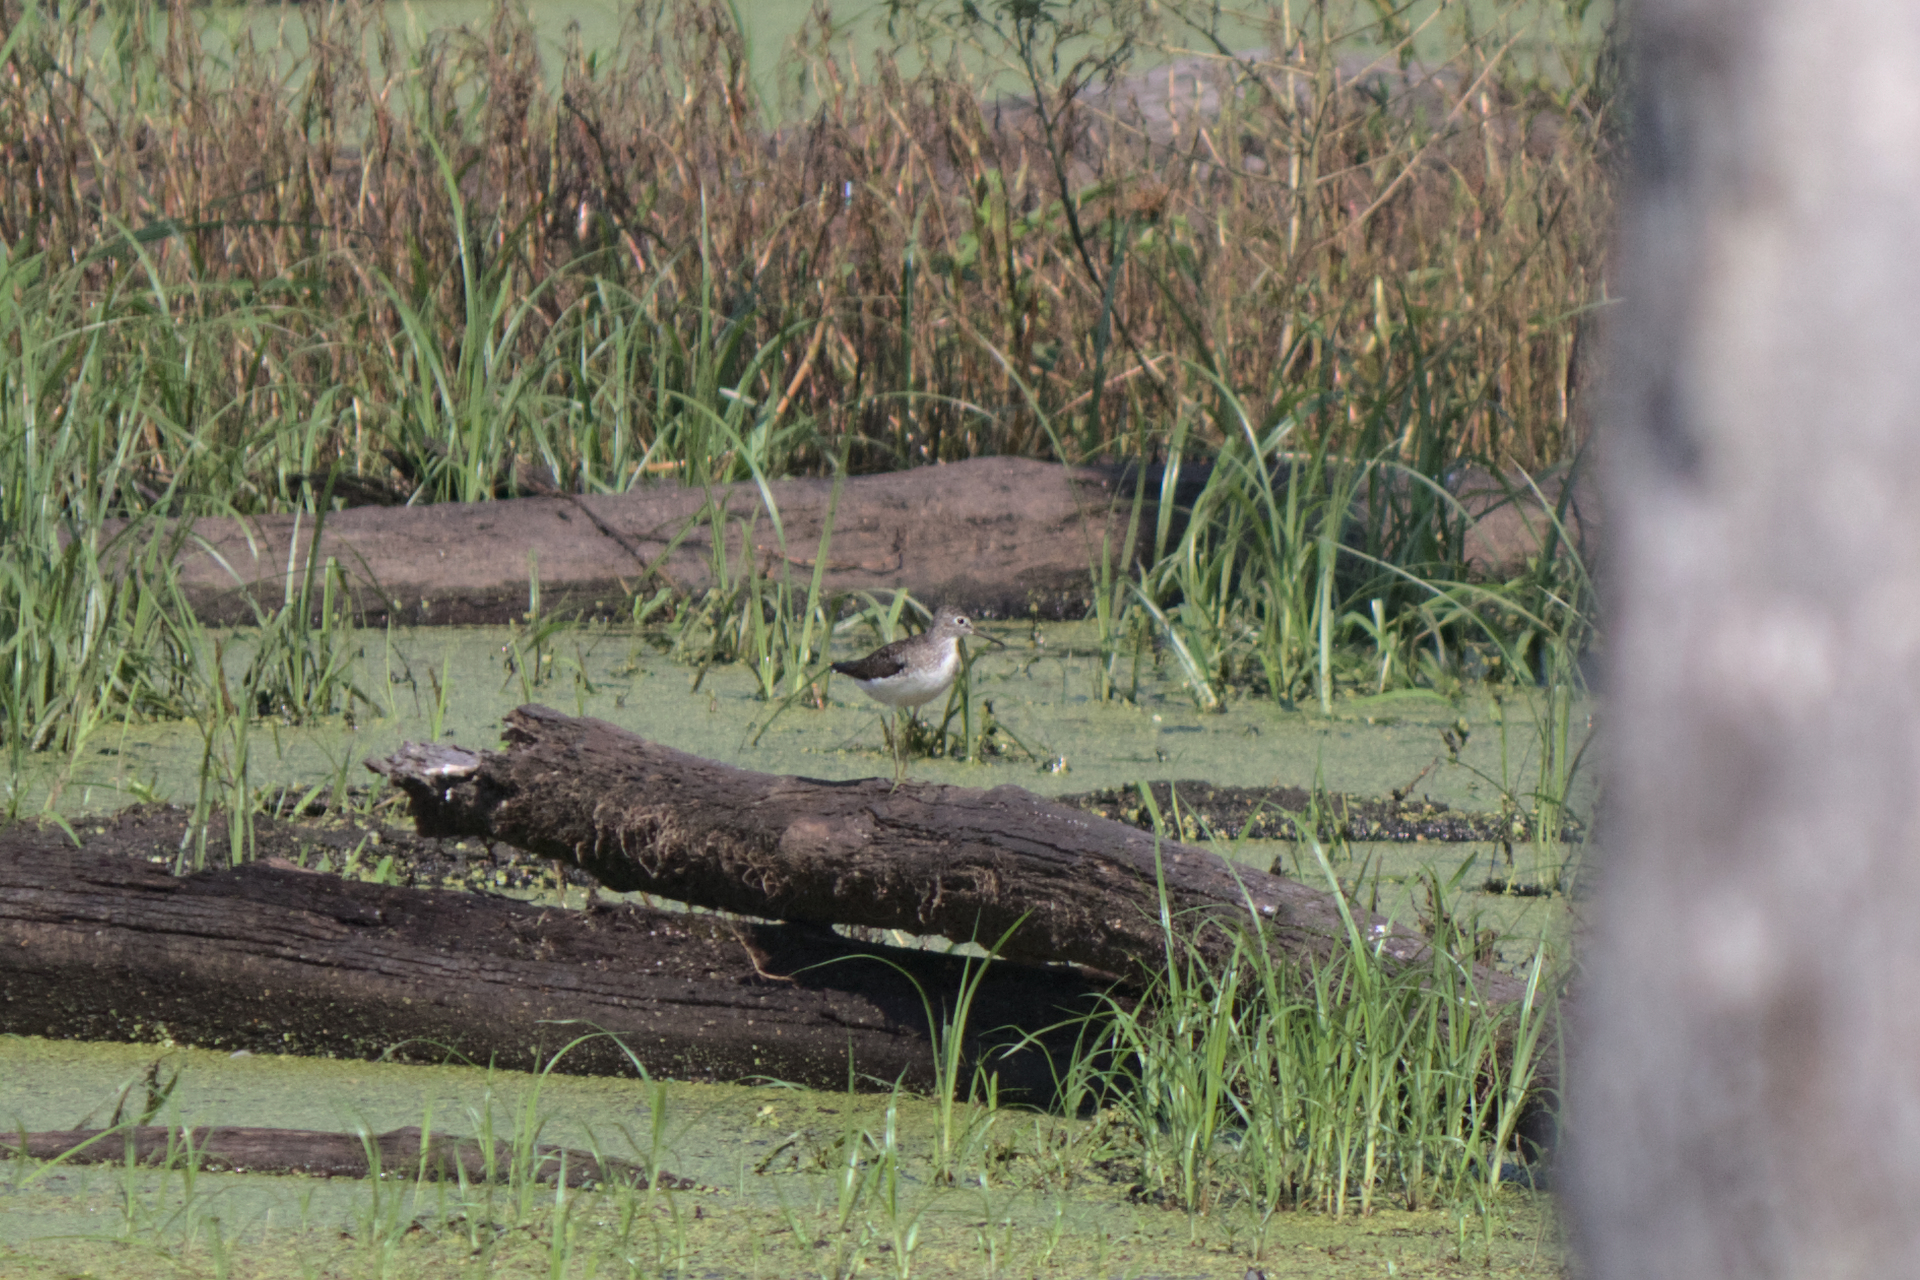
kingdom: Animalia
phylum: Chordata
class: Aves
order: Charadriiformes
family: Scolopacidae
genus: Tringa
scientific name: Tringa solitaria
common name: Solitary sandpiper
